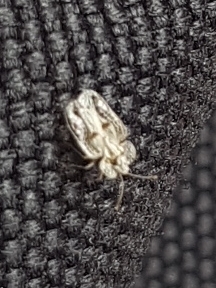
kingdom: Animalia
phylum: Arthropoda
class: Insecta
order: Hemiptera
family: Tingidae
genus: Corythucha
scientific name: Corythucha ciliata
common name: Sycamore lace bug
